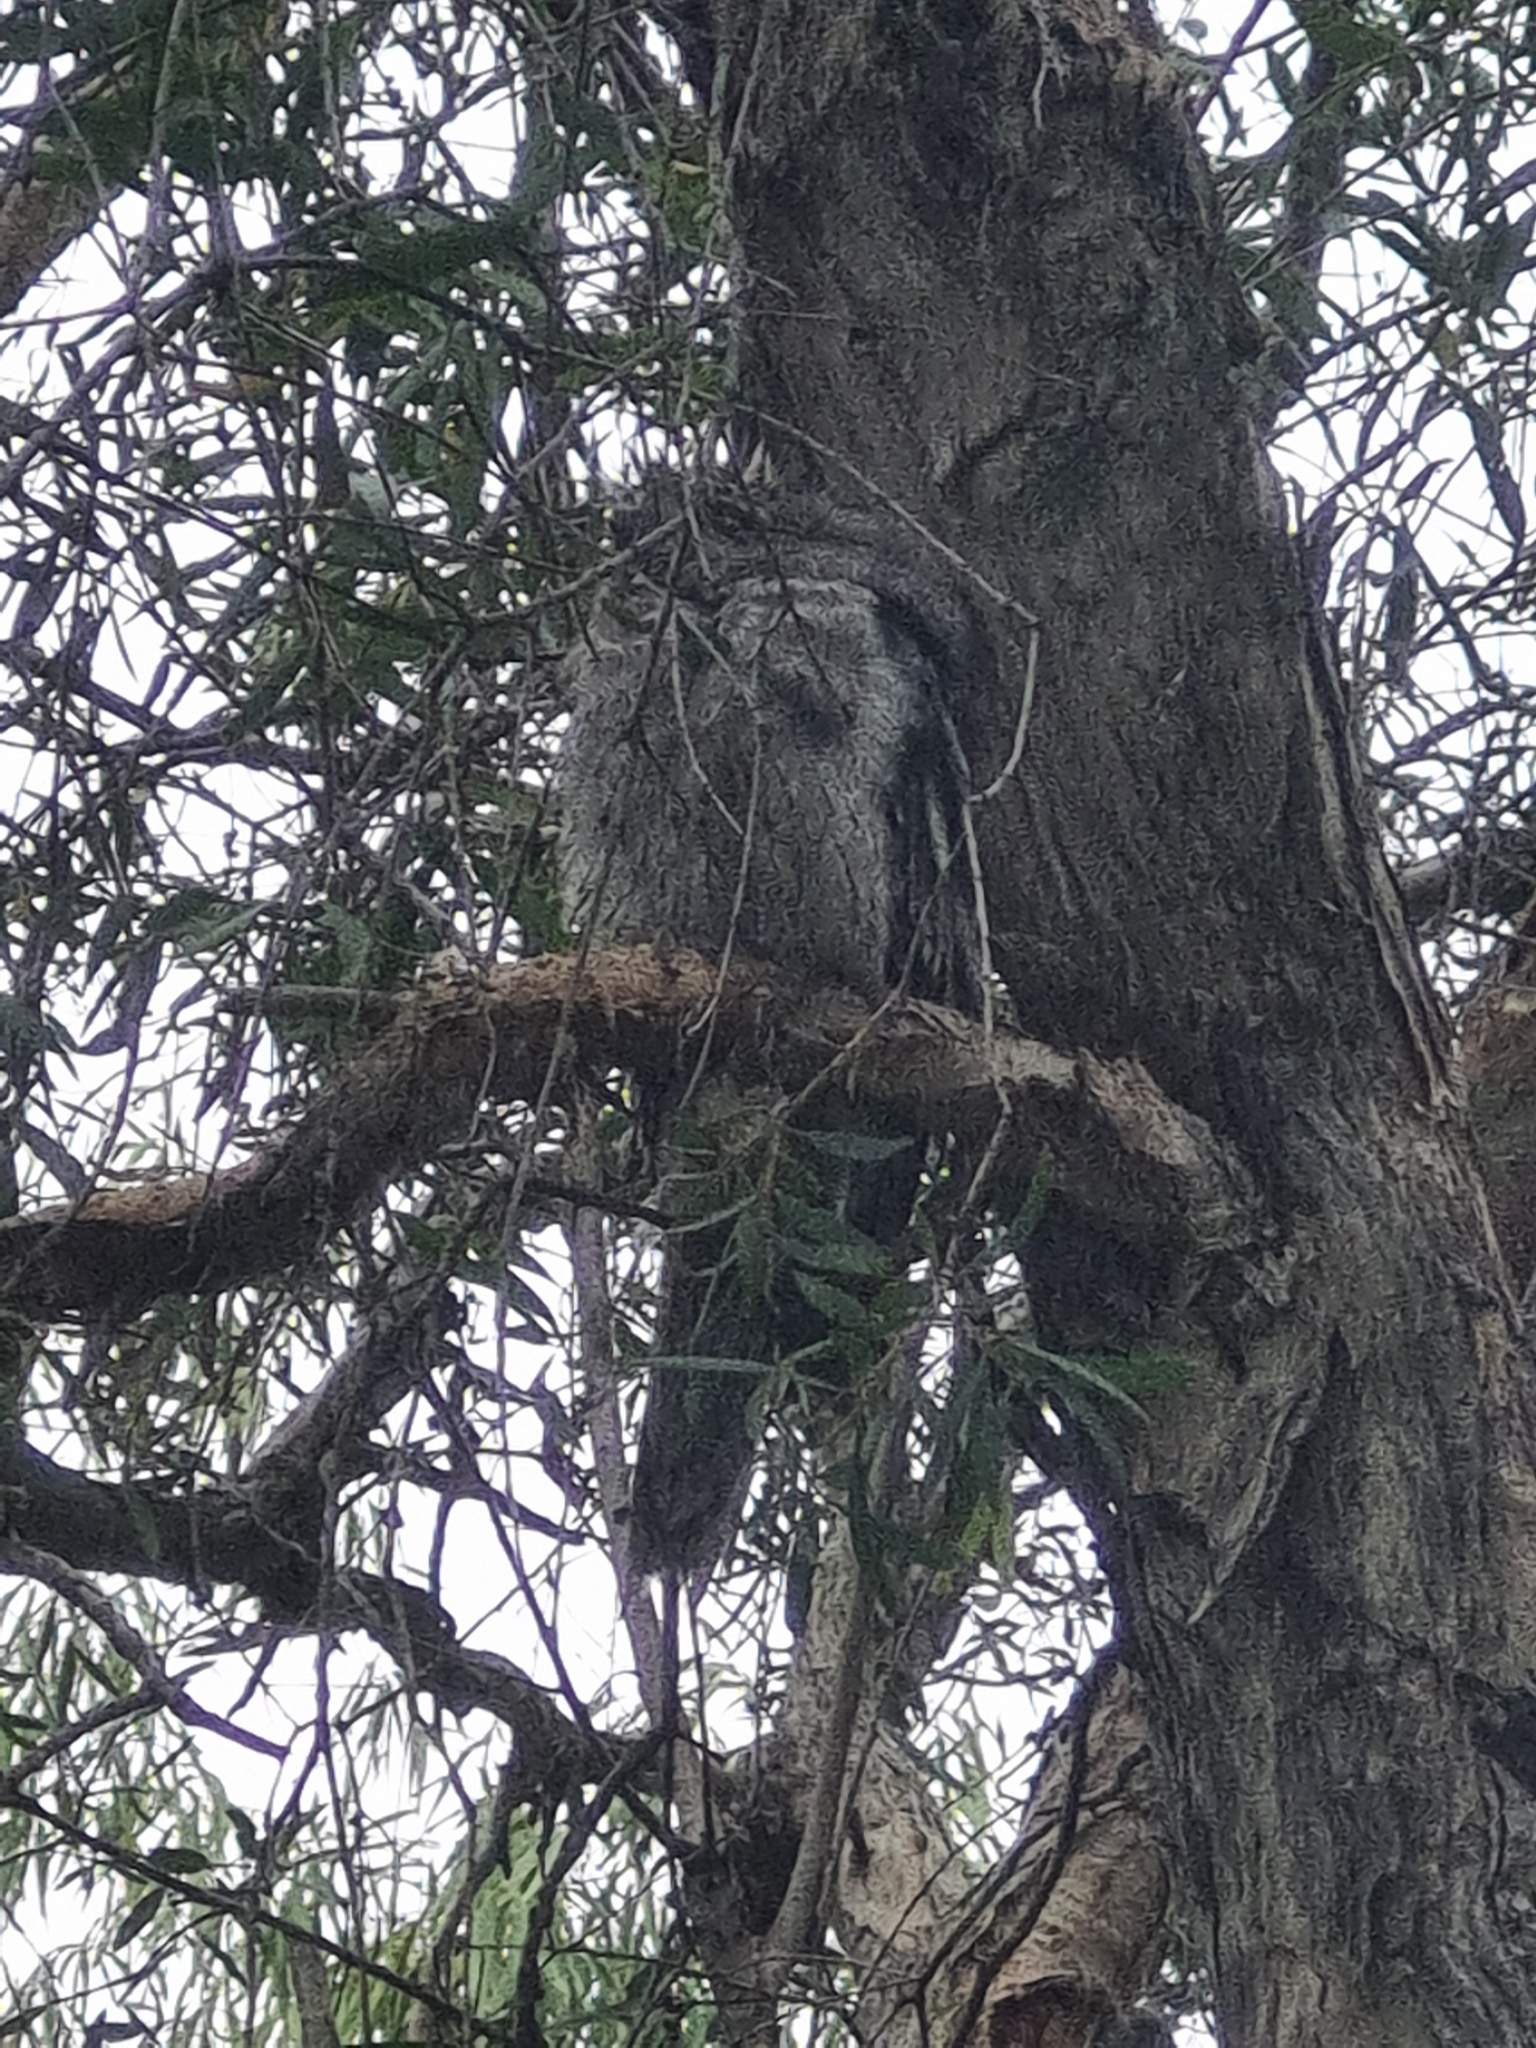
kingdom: Animalia
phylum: Chordata
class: Aves
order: Caprimulgiformes
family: Podargidae
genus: Podargus
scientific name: Podargus strigoides
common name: Tawny frogmouth
